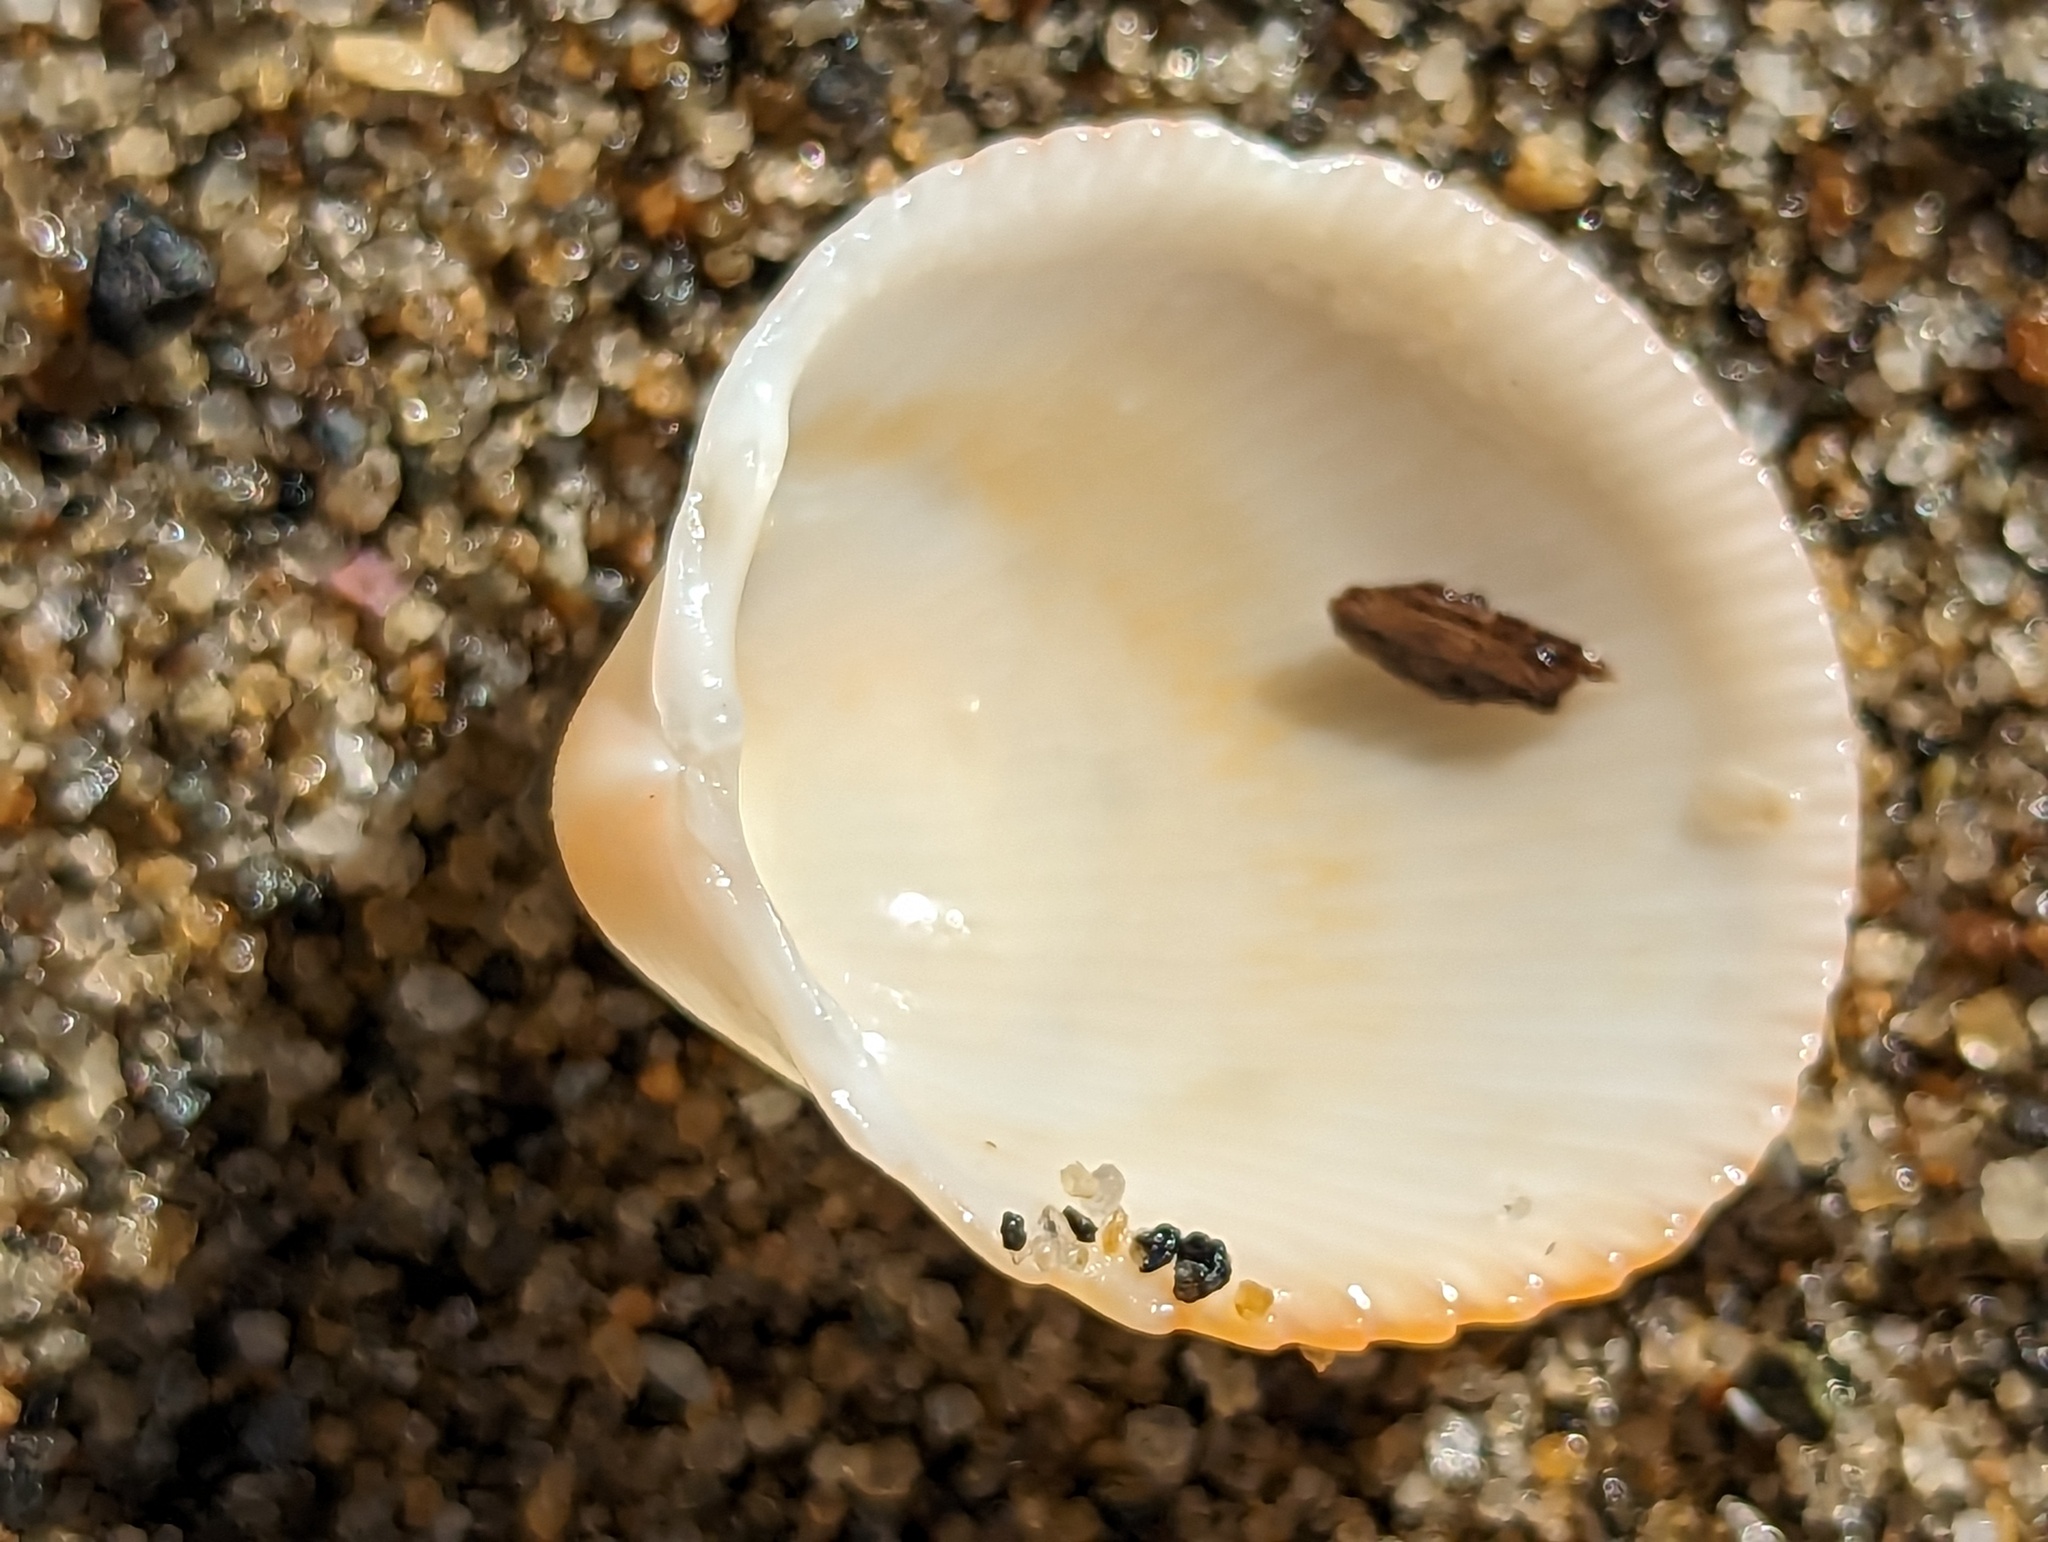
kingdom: Animalia
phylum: Mollusca
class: Bivalvia
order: Cardiida
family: Cardiidae
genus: Dallocardia
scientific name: Dallocardia muricata
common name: Yellow pricklycockle
